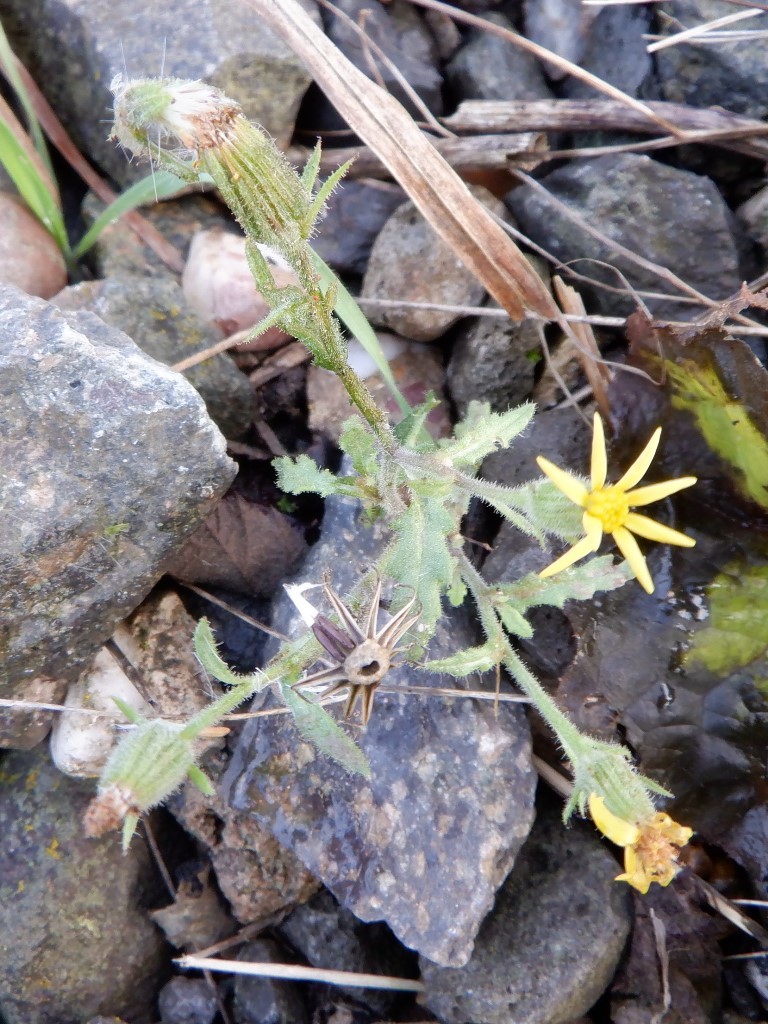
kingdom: Plantae
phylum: Tracheophyta
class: Magnoliopsida
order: Asterales
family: Asteraceae
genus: Senecio
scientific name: Senecio viscosus
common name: Sticky groundsel
